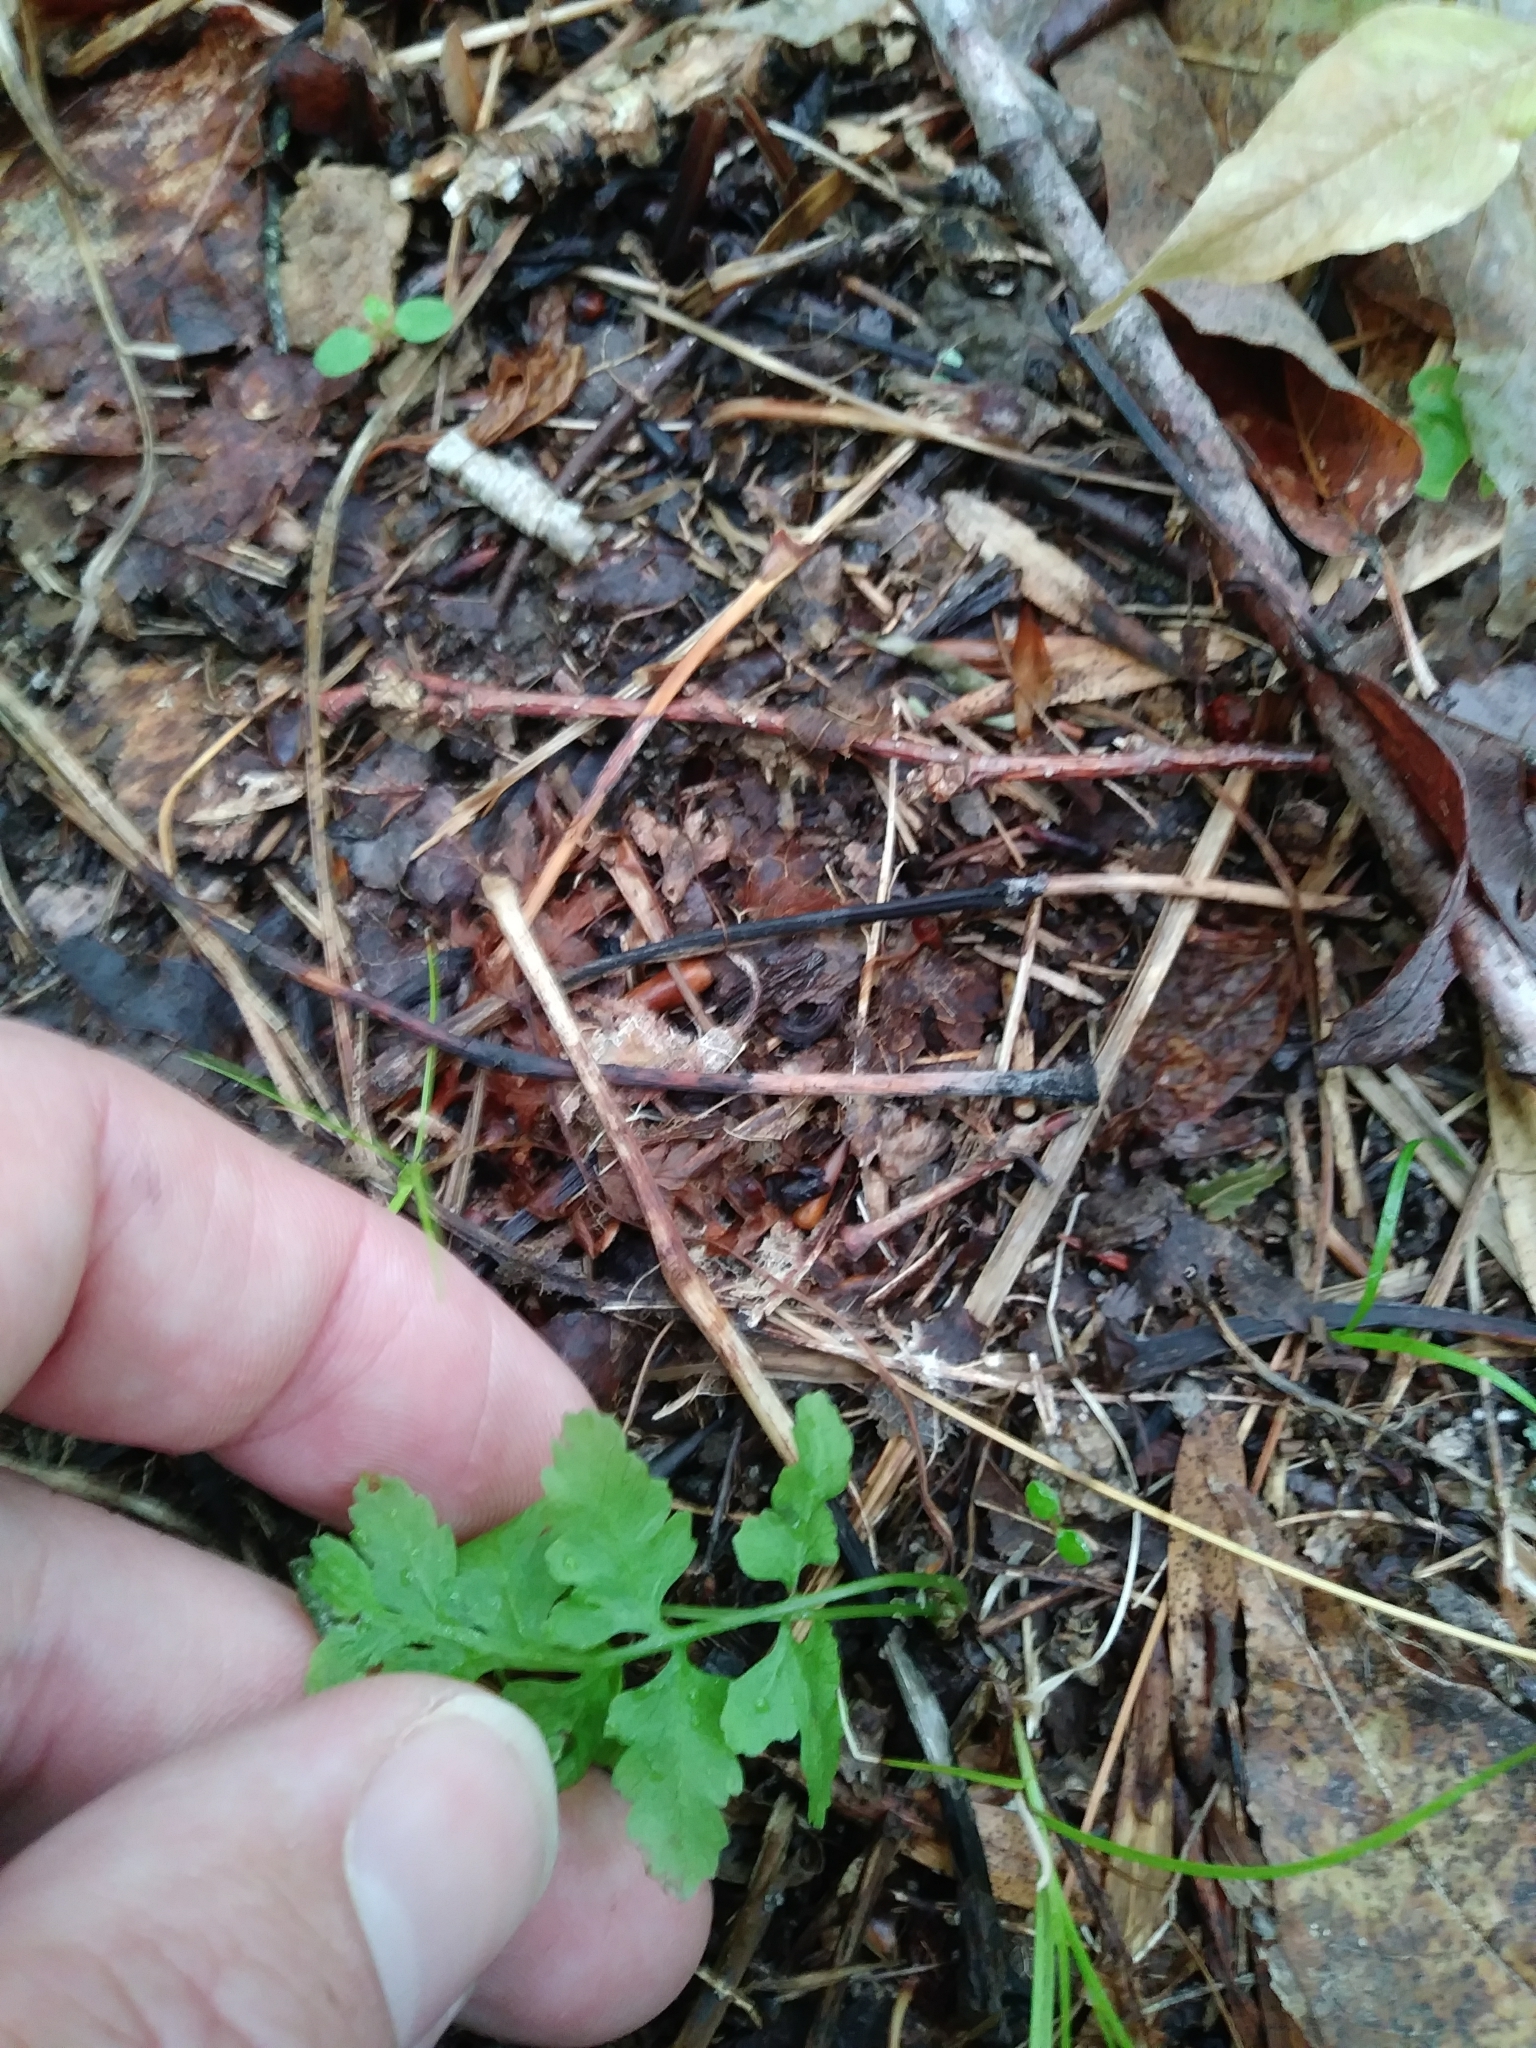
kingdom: Plantae
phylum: Tracheophyta
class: Polypodiopsida
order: Polypodiales
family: Cystopteridaceae
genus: Cystopteris
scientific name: Cystopteris fragilis
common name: Brittle bladder fern
